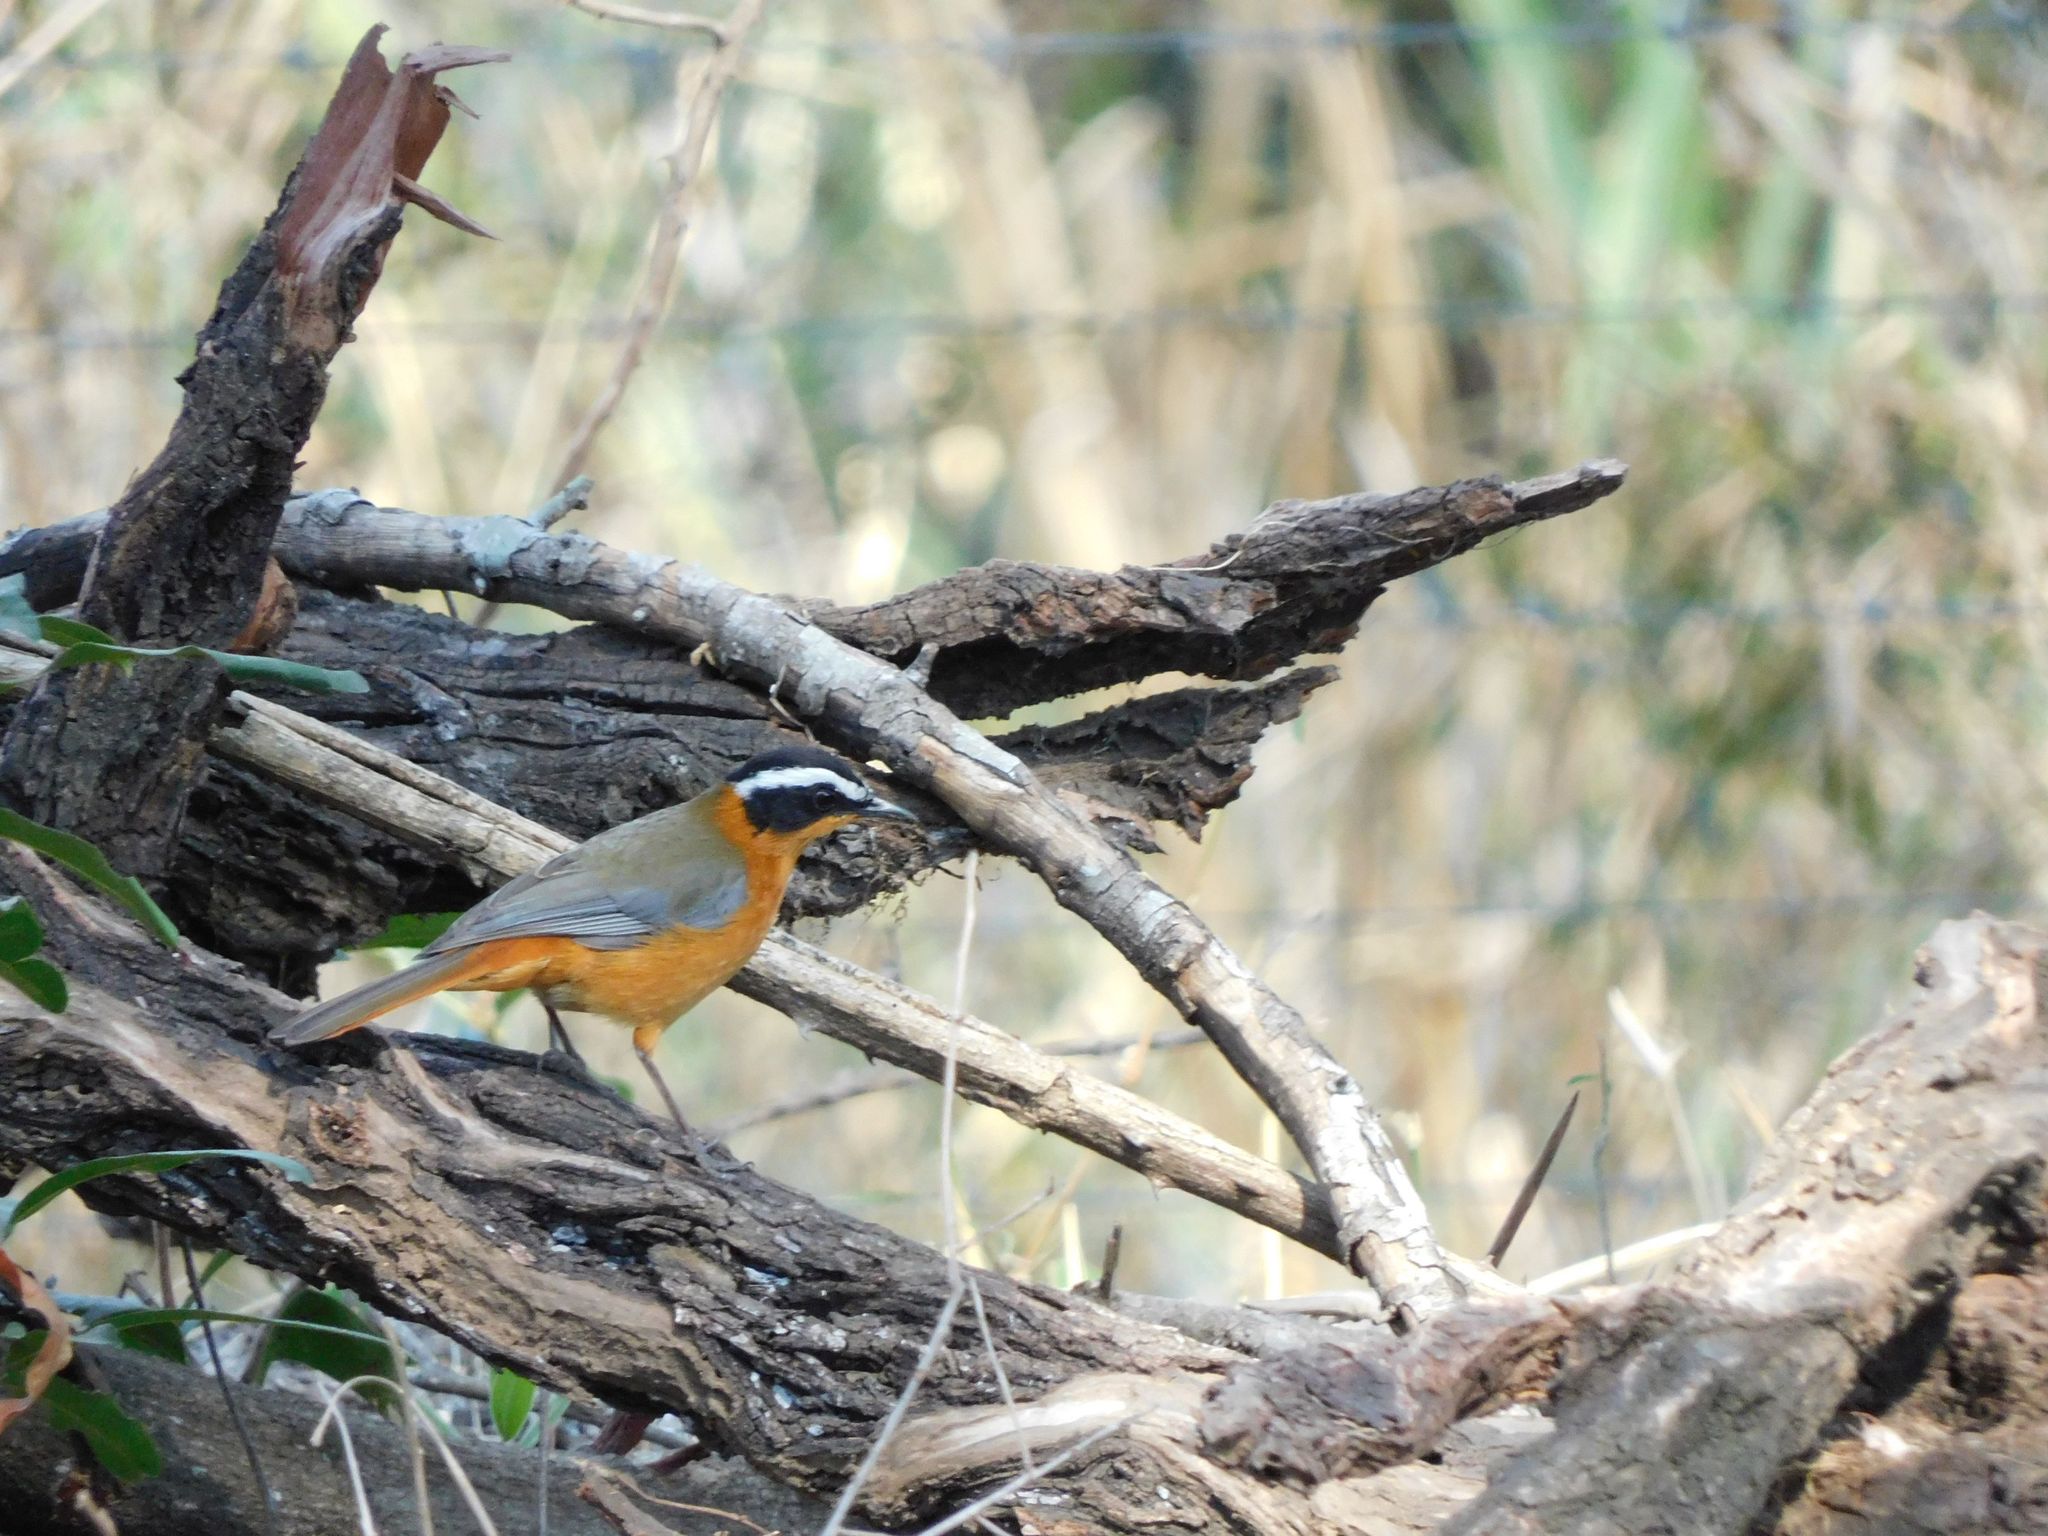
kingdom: Animalia
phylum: Chordata
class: Aves
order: Passeriformes
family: Muscicapidae
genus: Cossypha
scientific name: Cossypha heuglini
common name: White-browed robin-chat
